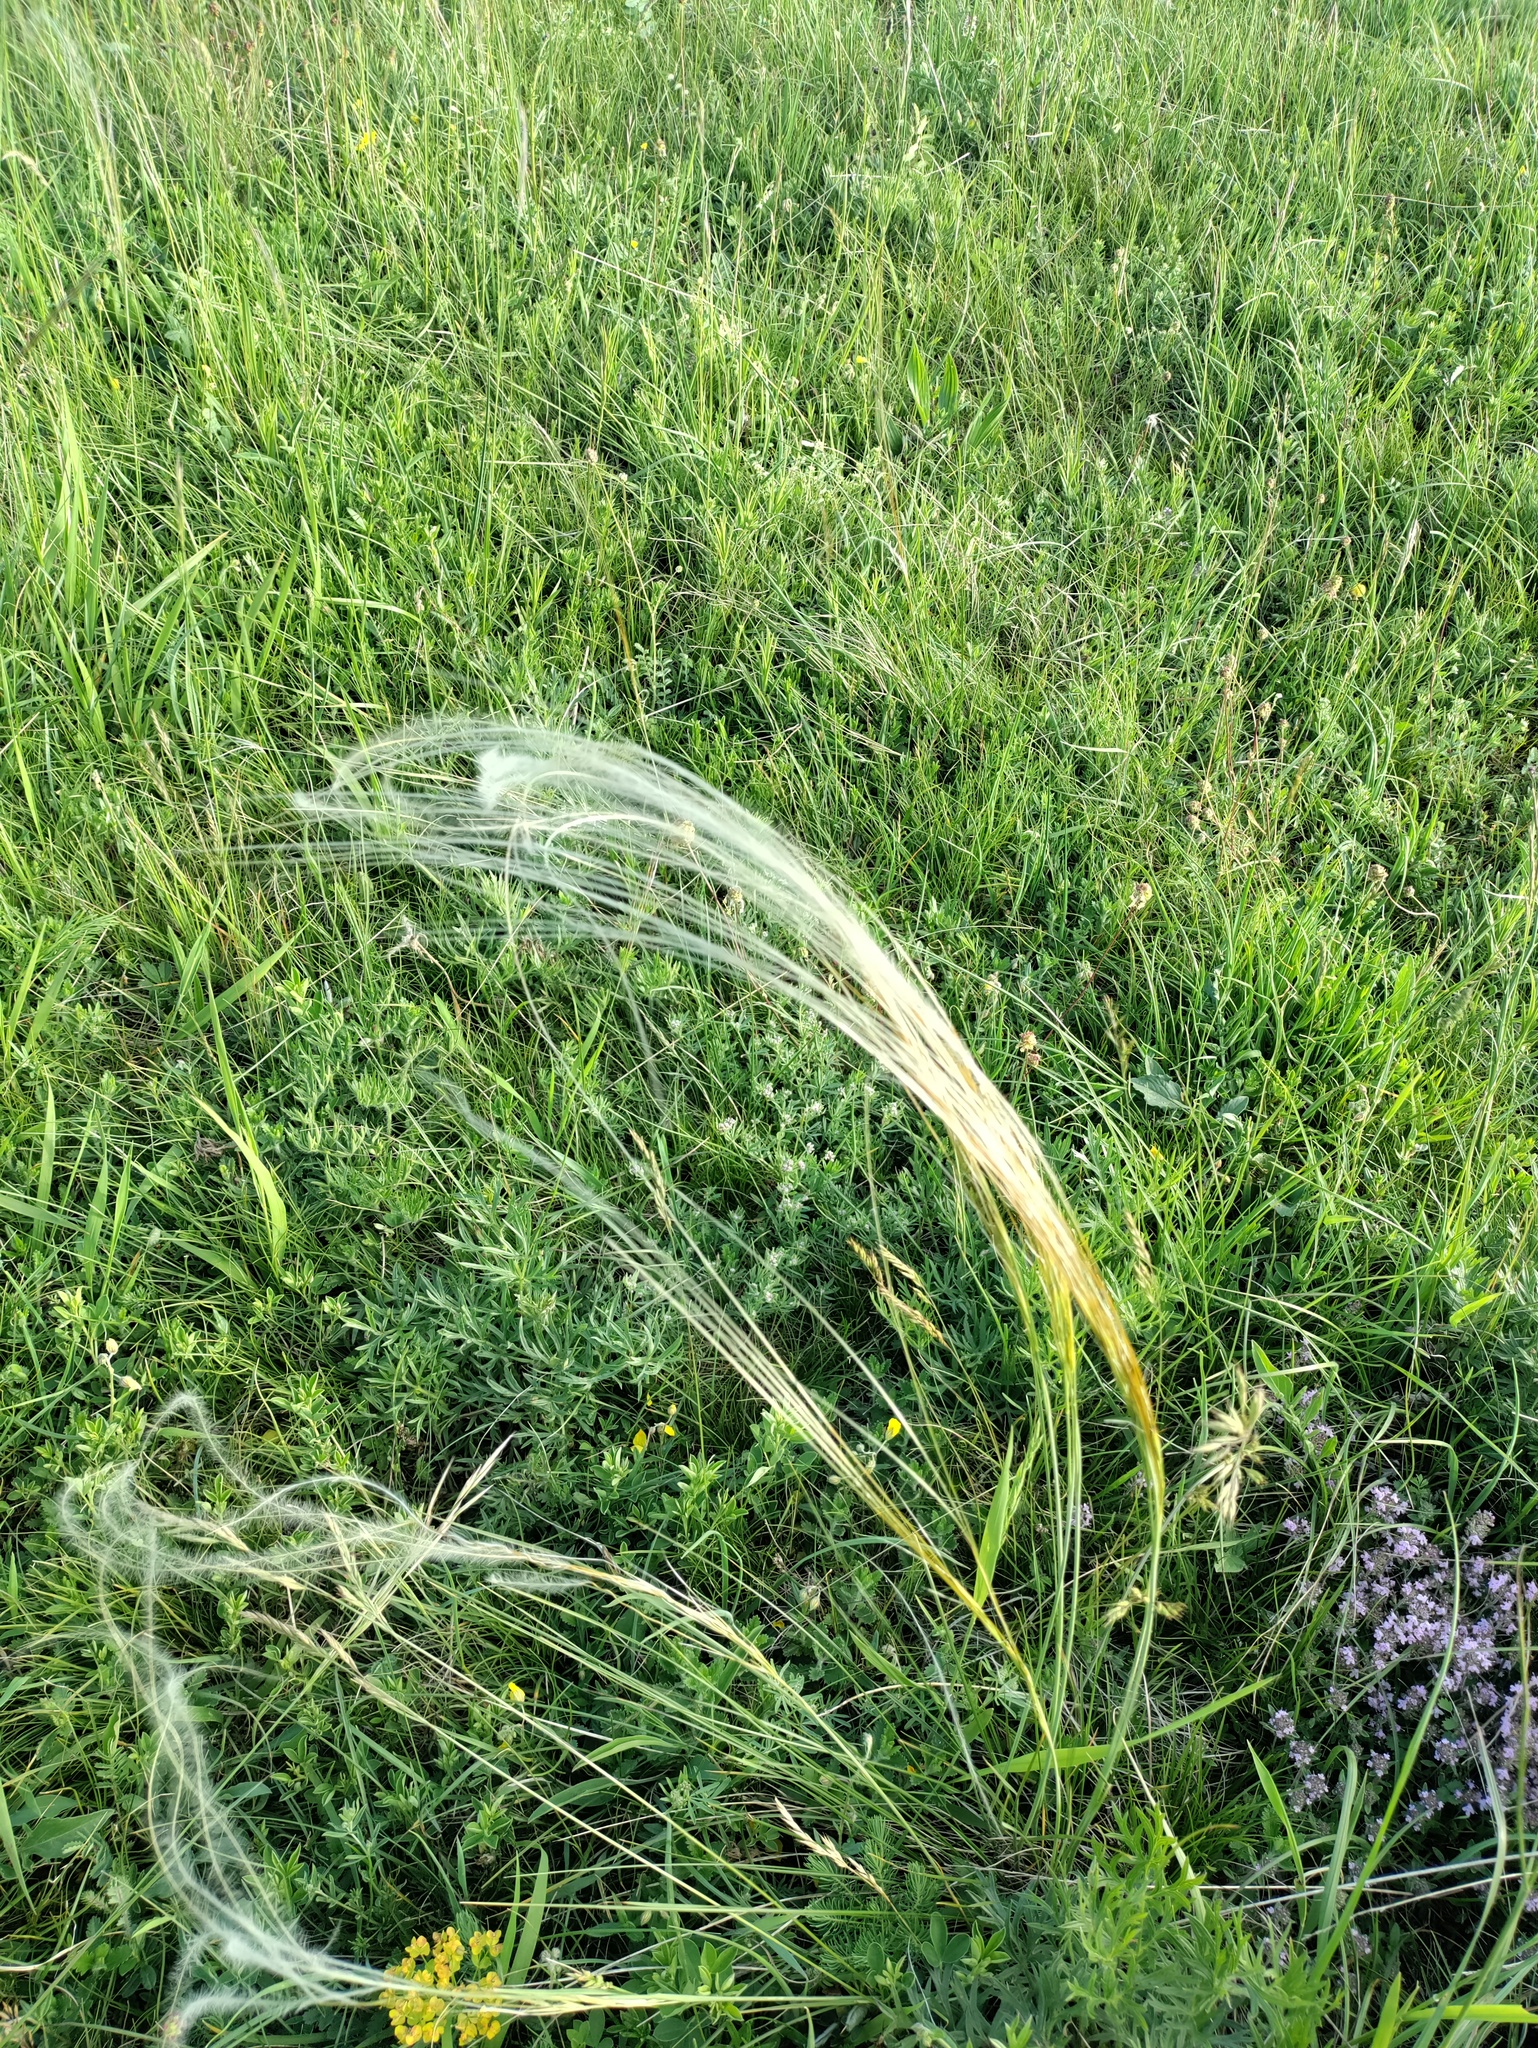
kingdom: Plantae
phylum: Tracheophyta
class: Liliopsida
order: Poales
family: Poaceae
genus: Stipa
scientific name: Stipa pennata
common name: European feather grass
